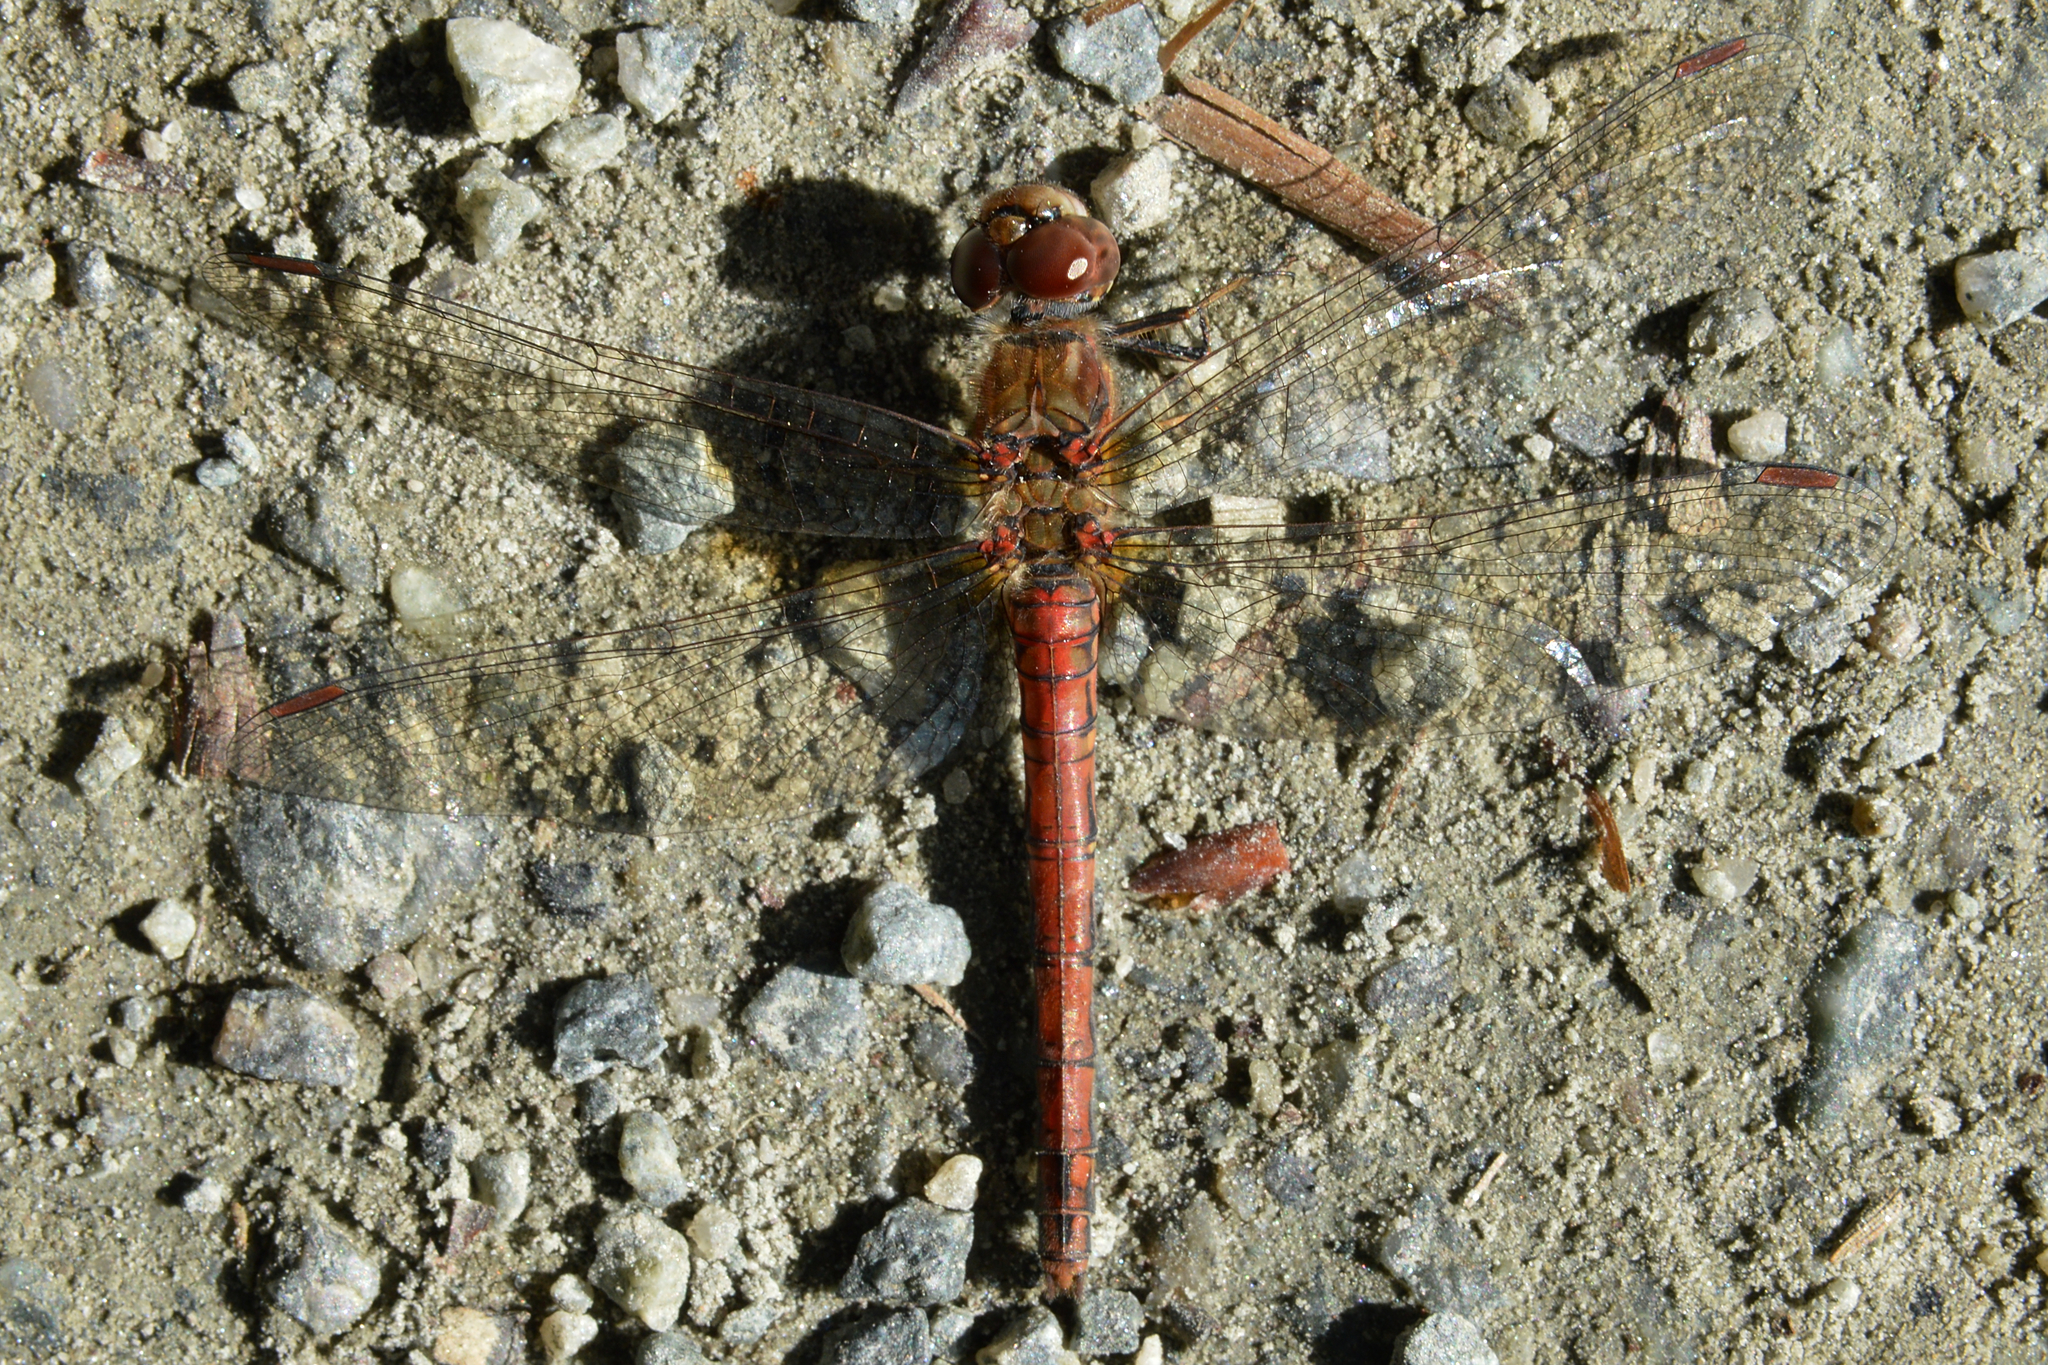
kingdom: Animalia
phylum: Arthropoda
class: Insecta
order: Odonata
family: Libellulidae
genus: Sympetrum
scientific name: Sympetrum striolatum
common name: Common darter
